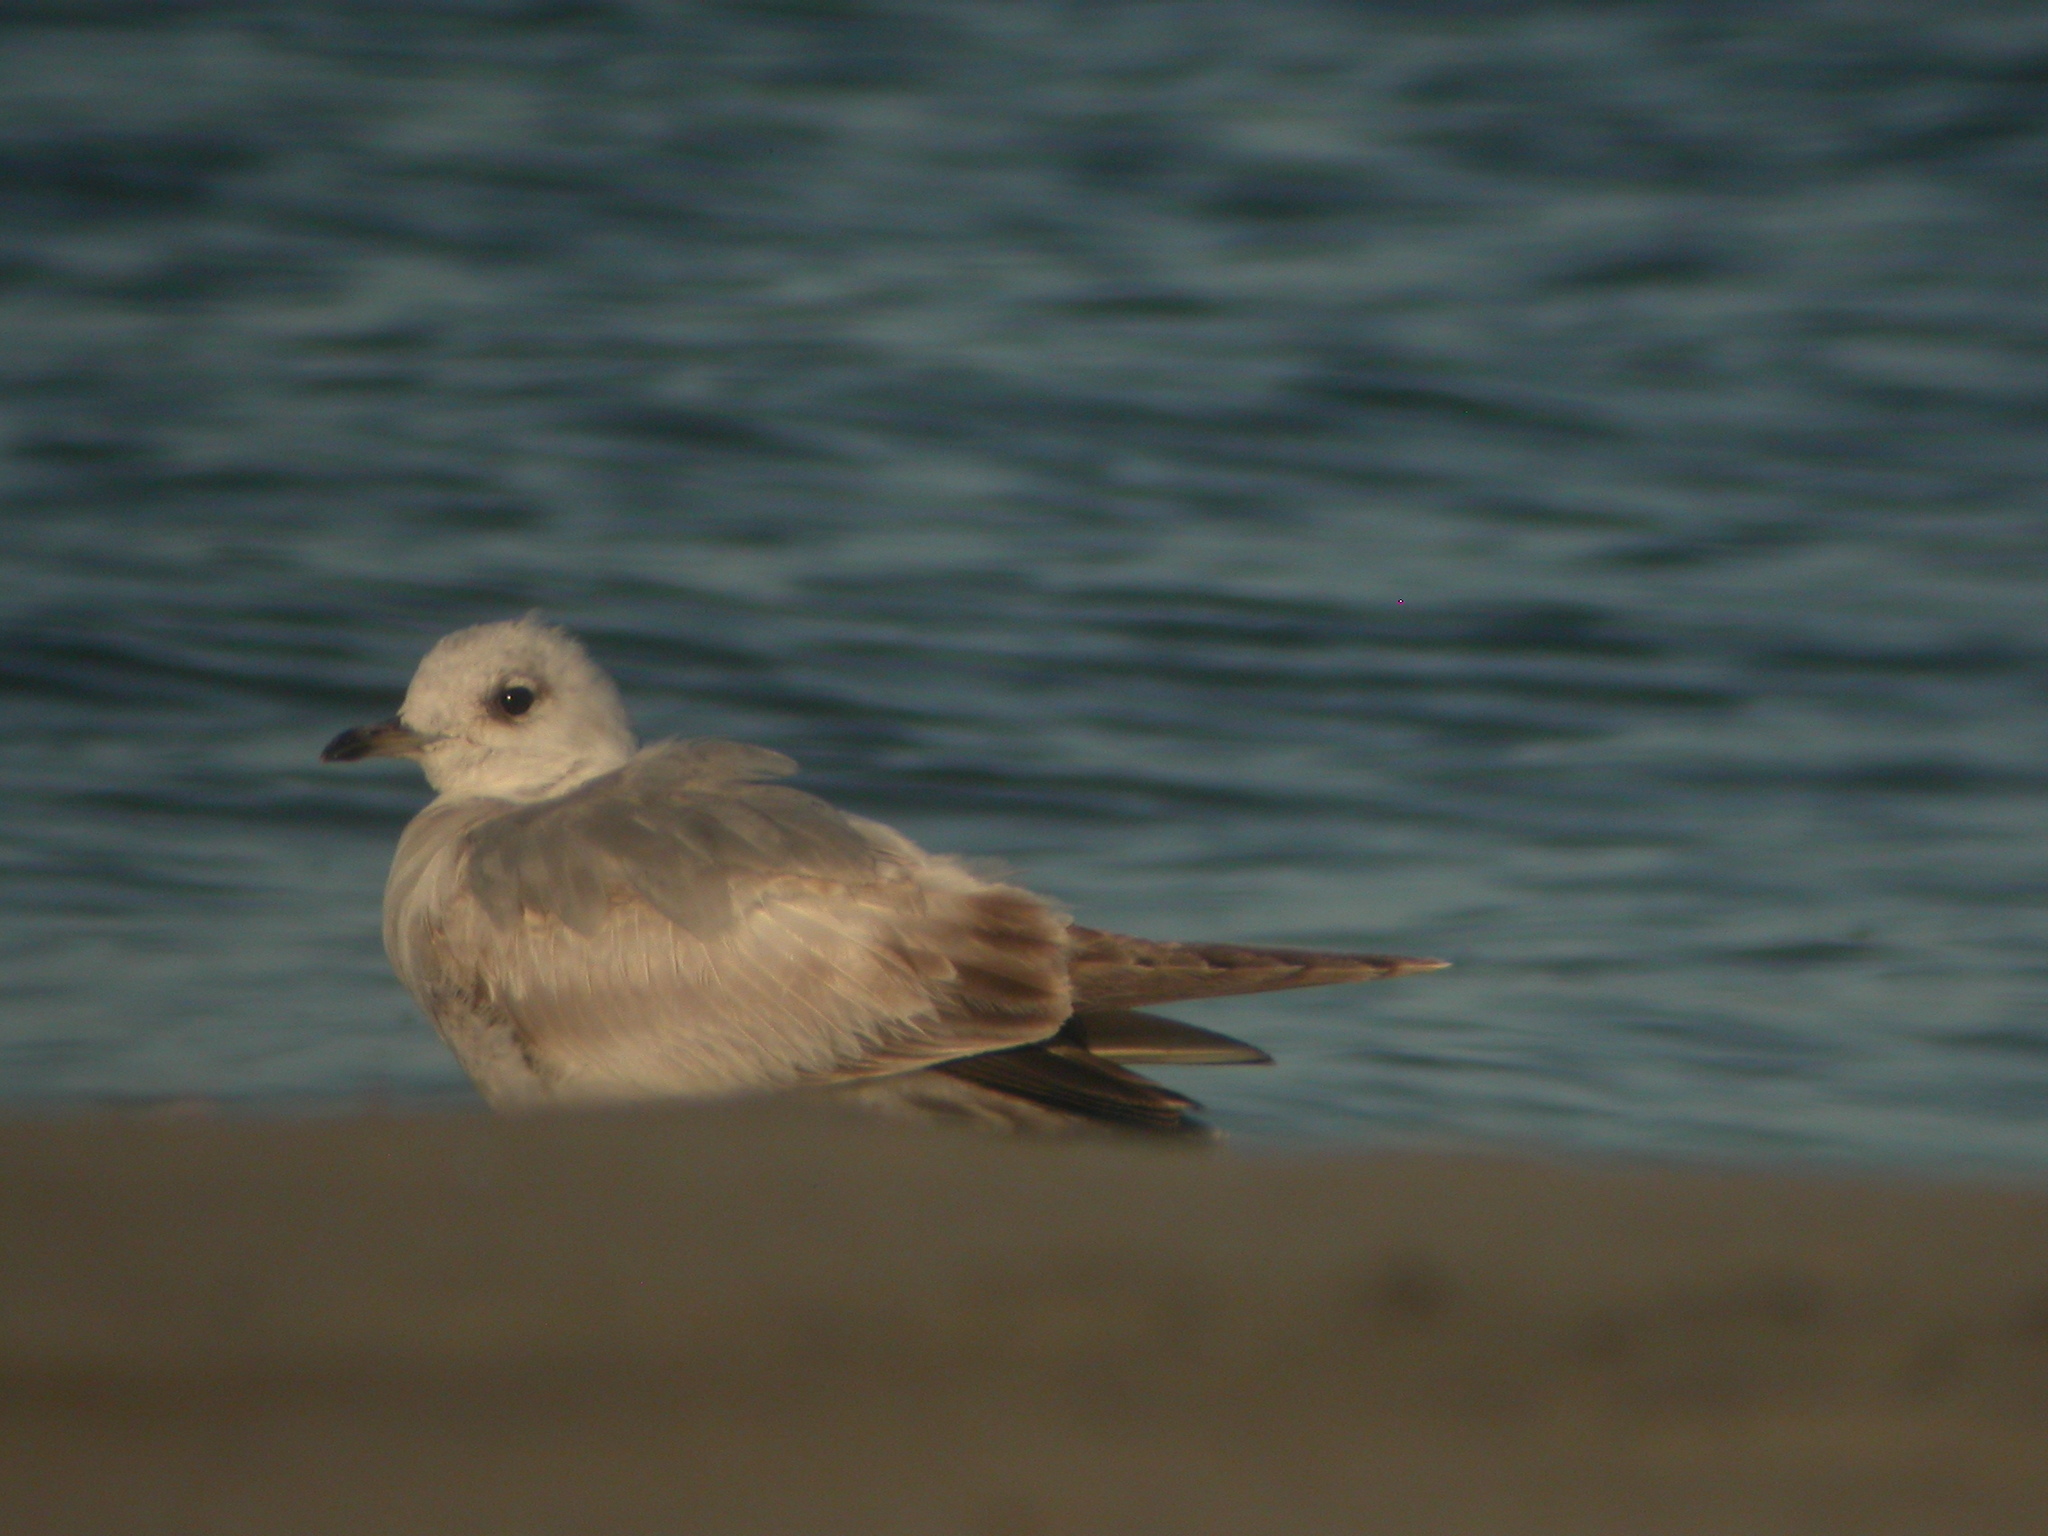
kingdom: Animalia
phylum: Chordata
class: Aves
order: Charadriiformes
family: Laridae
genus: Larus
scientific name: Larus brachyrhynchus
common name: Short-billed gull
